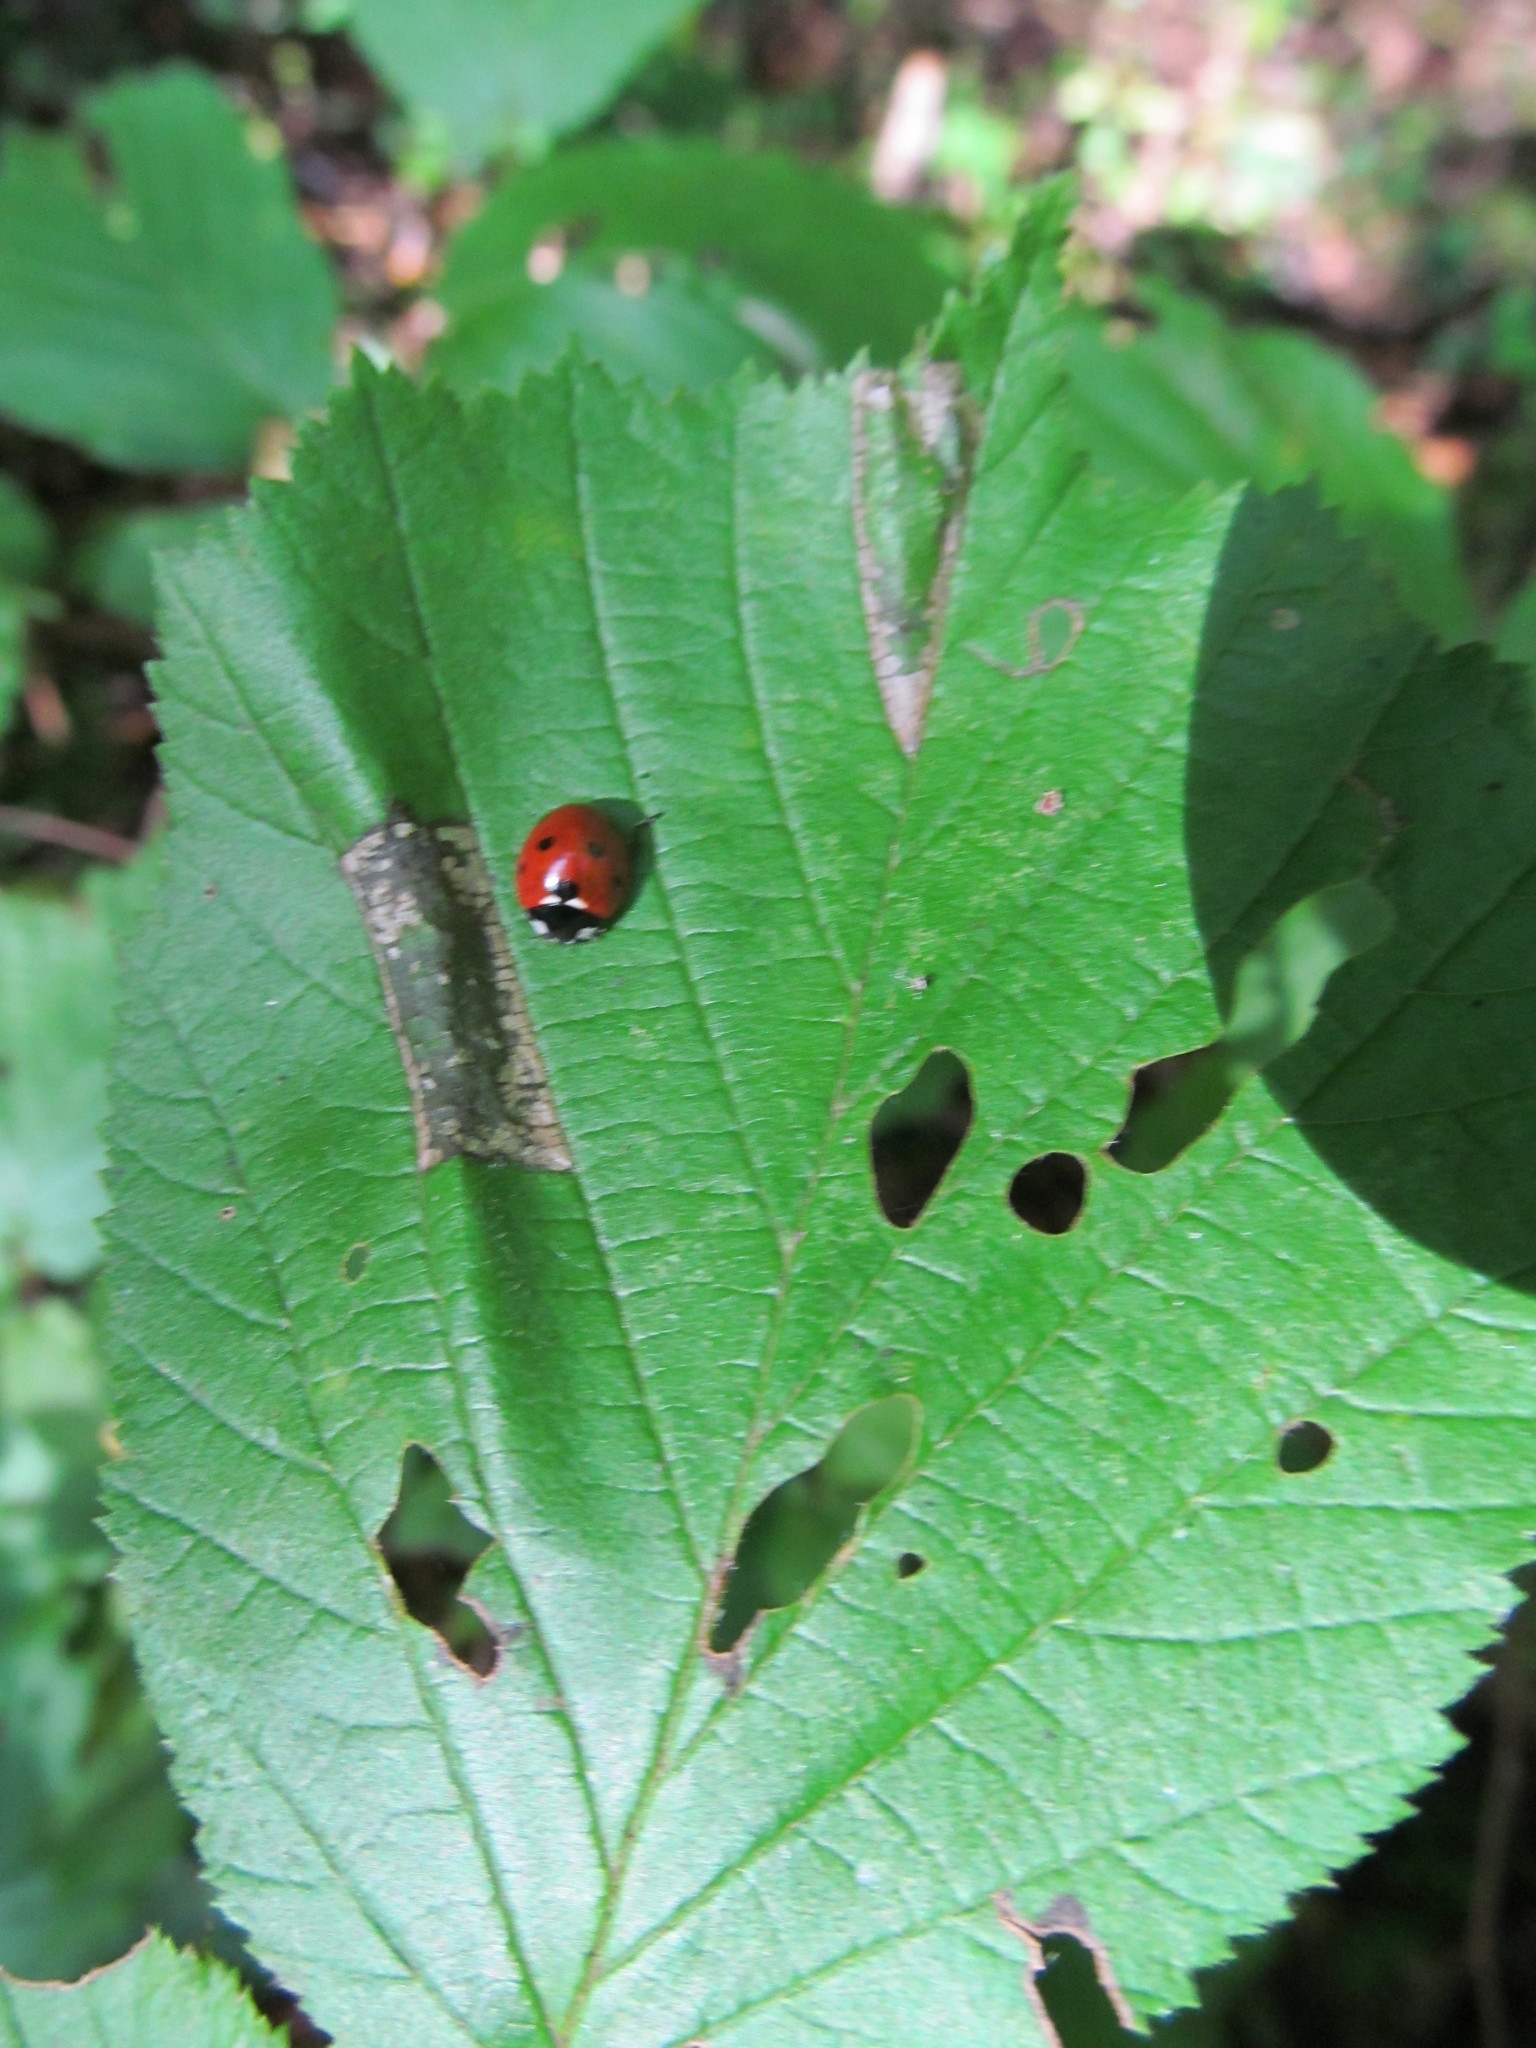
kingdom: Animalia
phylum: Arthropoda
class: Insecta
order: Coleoptera
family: Coccinellidae
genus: Coccinella
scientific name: Coccinella septempunctata
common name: Sevenspotted lady beetle
